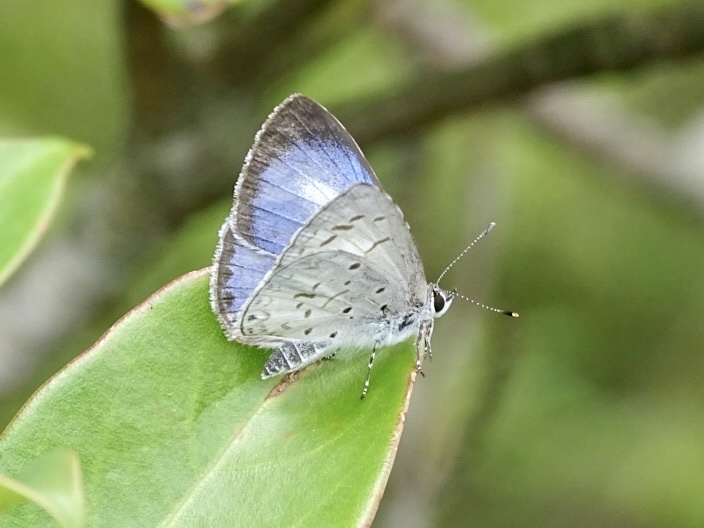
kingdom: Animalia
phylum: Arthropoda
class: Insecta
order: Lepidoptera
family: Lycaenidae
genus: Acytolepis
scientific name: Acytolepis puspa
